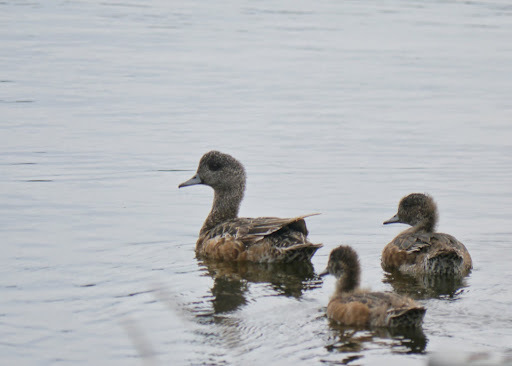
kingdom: Animalia
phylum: Chordata
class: Aves
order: Anseriformes
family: Anatidae
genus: Mareca
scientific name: Mareca americana
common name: American wigeon
